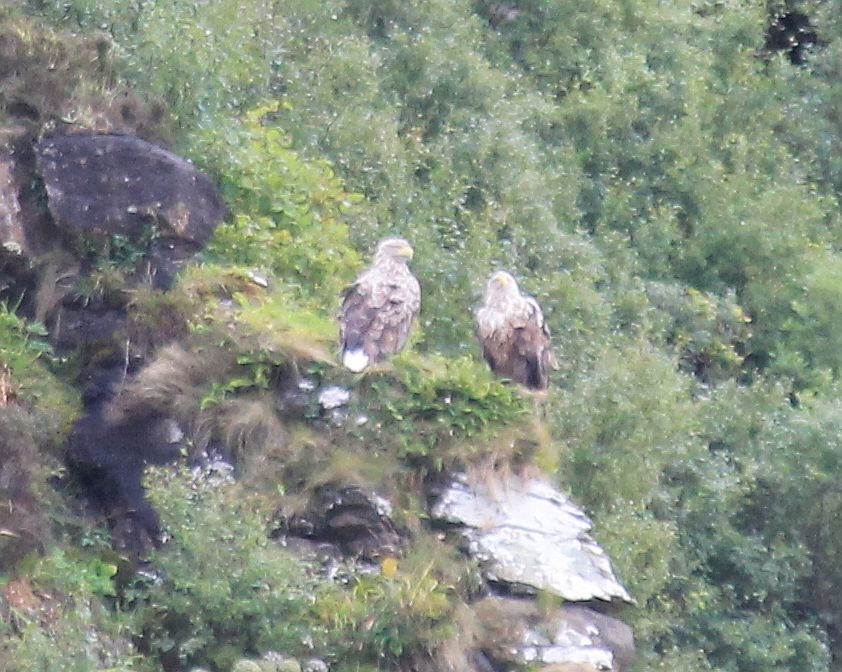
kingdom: Animalia
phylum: Chordata
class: Aves
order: Accipitriformes
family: Accipitridae
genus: Haliaeetus
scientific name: Haliaeetus albicilla
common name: White-tailed eagle
